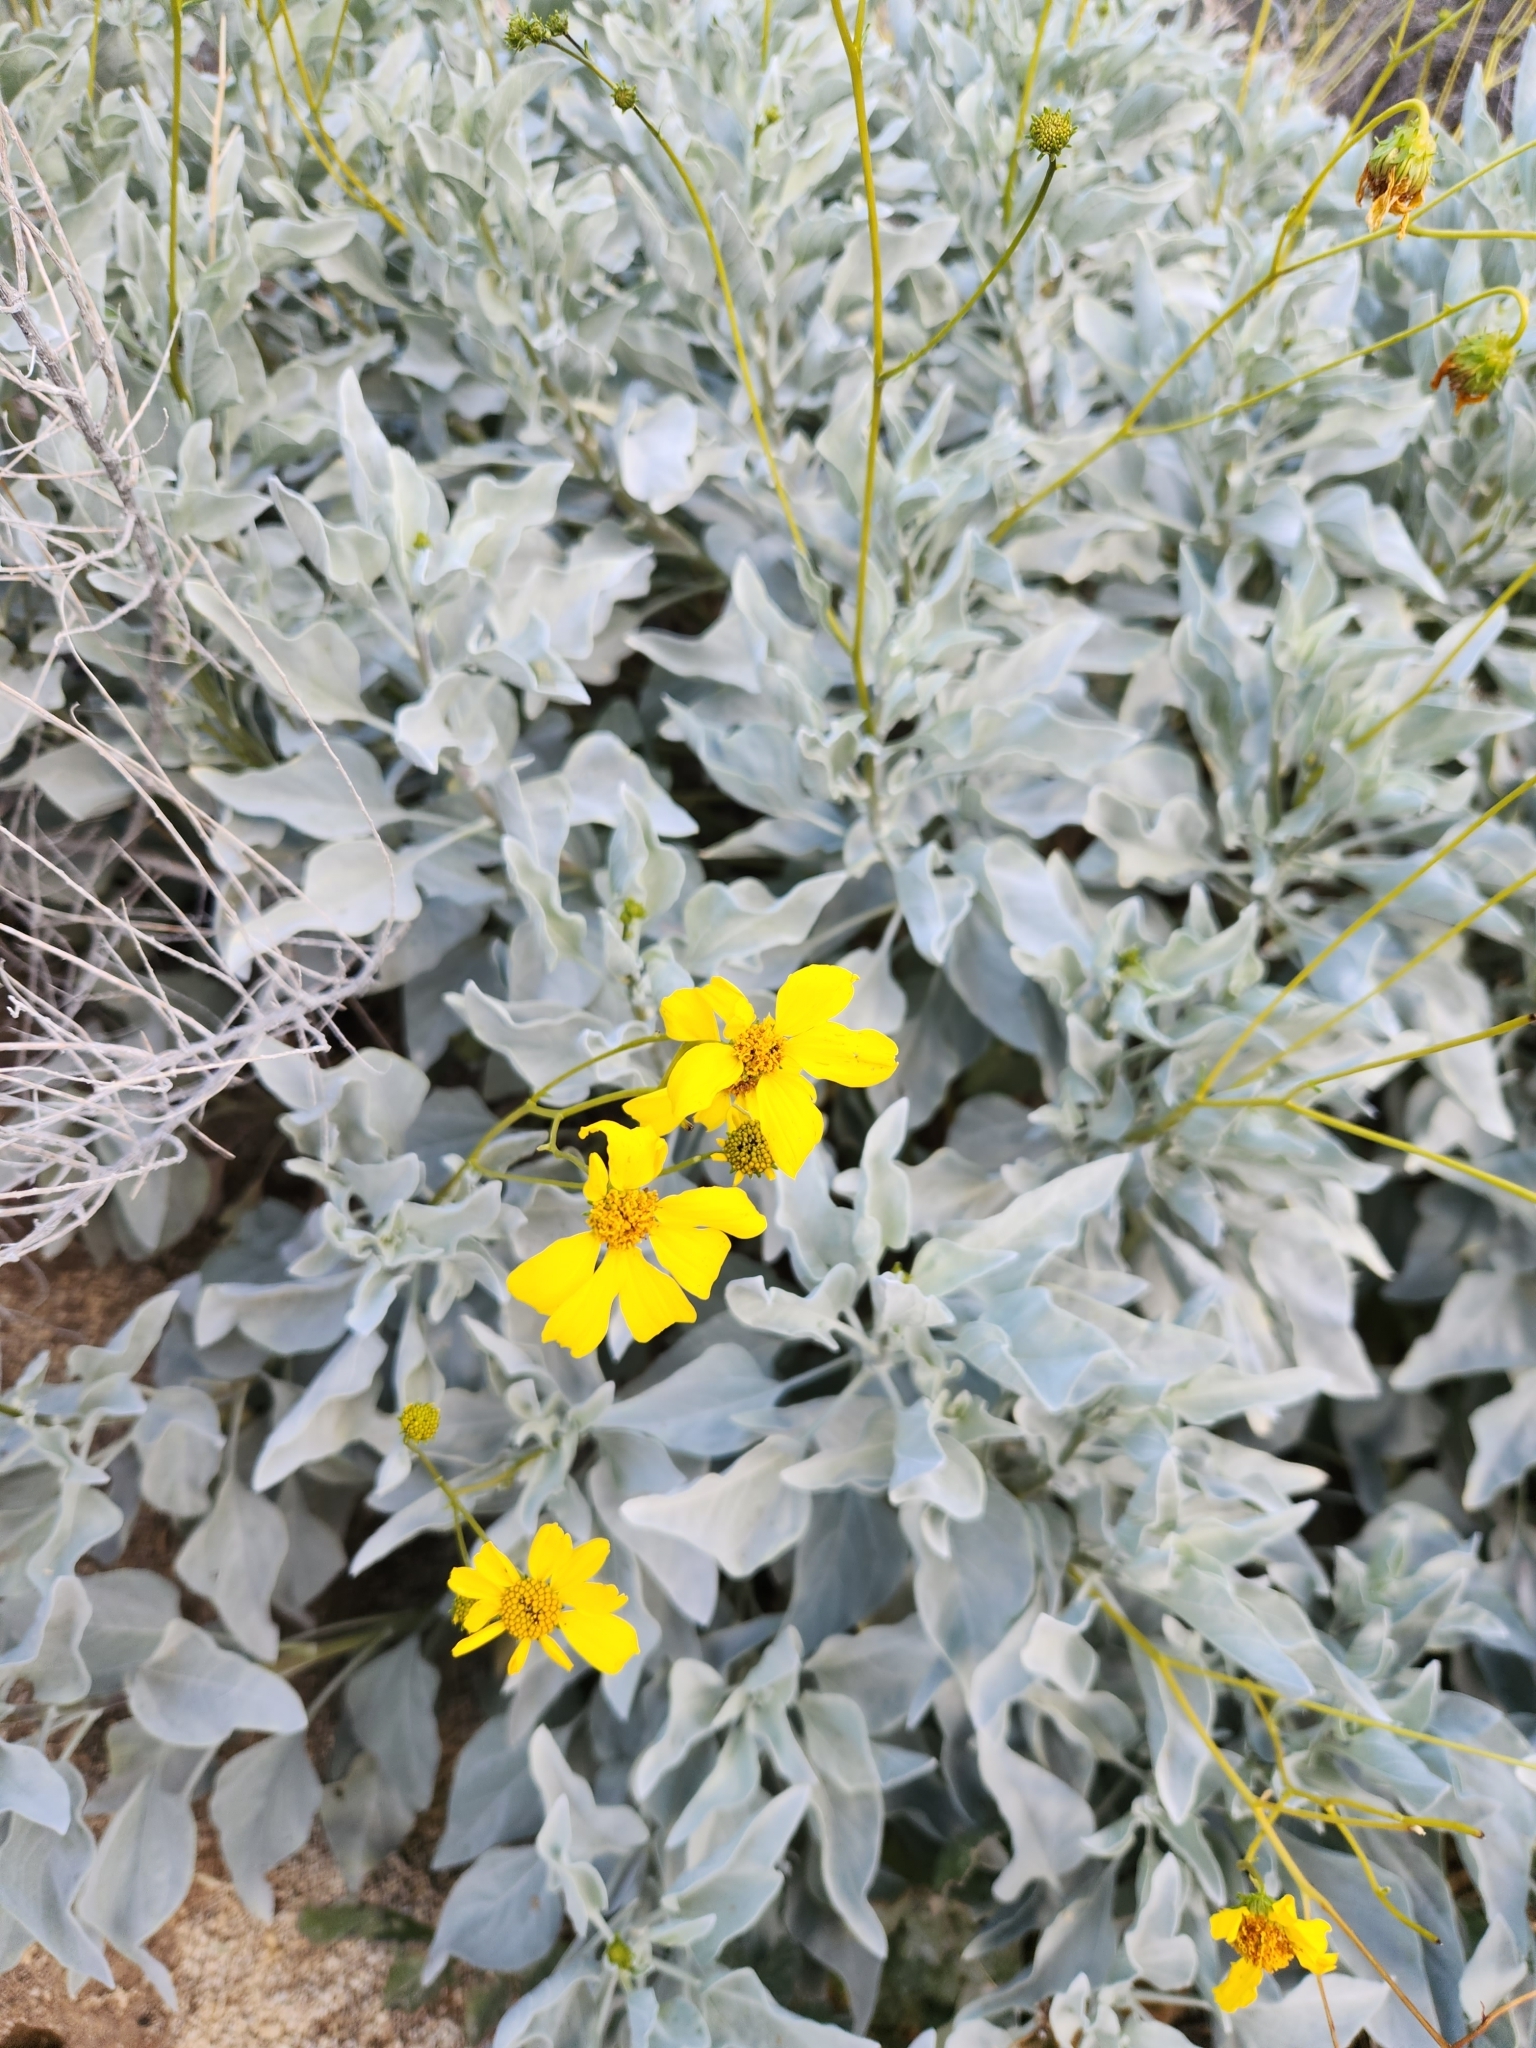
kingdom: Plantae
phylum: Tracheophyta
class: Magnoliopsida
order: Asterales
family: Asteraceae
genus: Encelia
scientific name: Encelia farinosa
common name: Brittlebush
